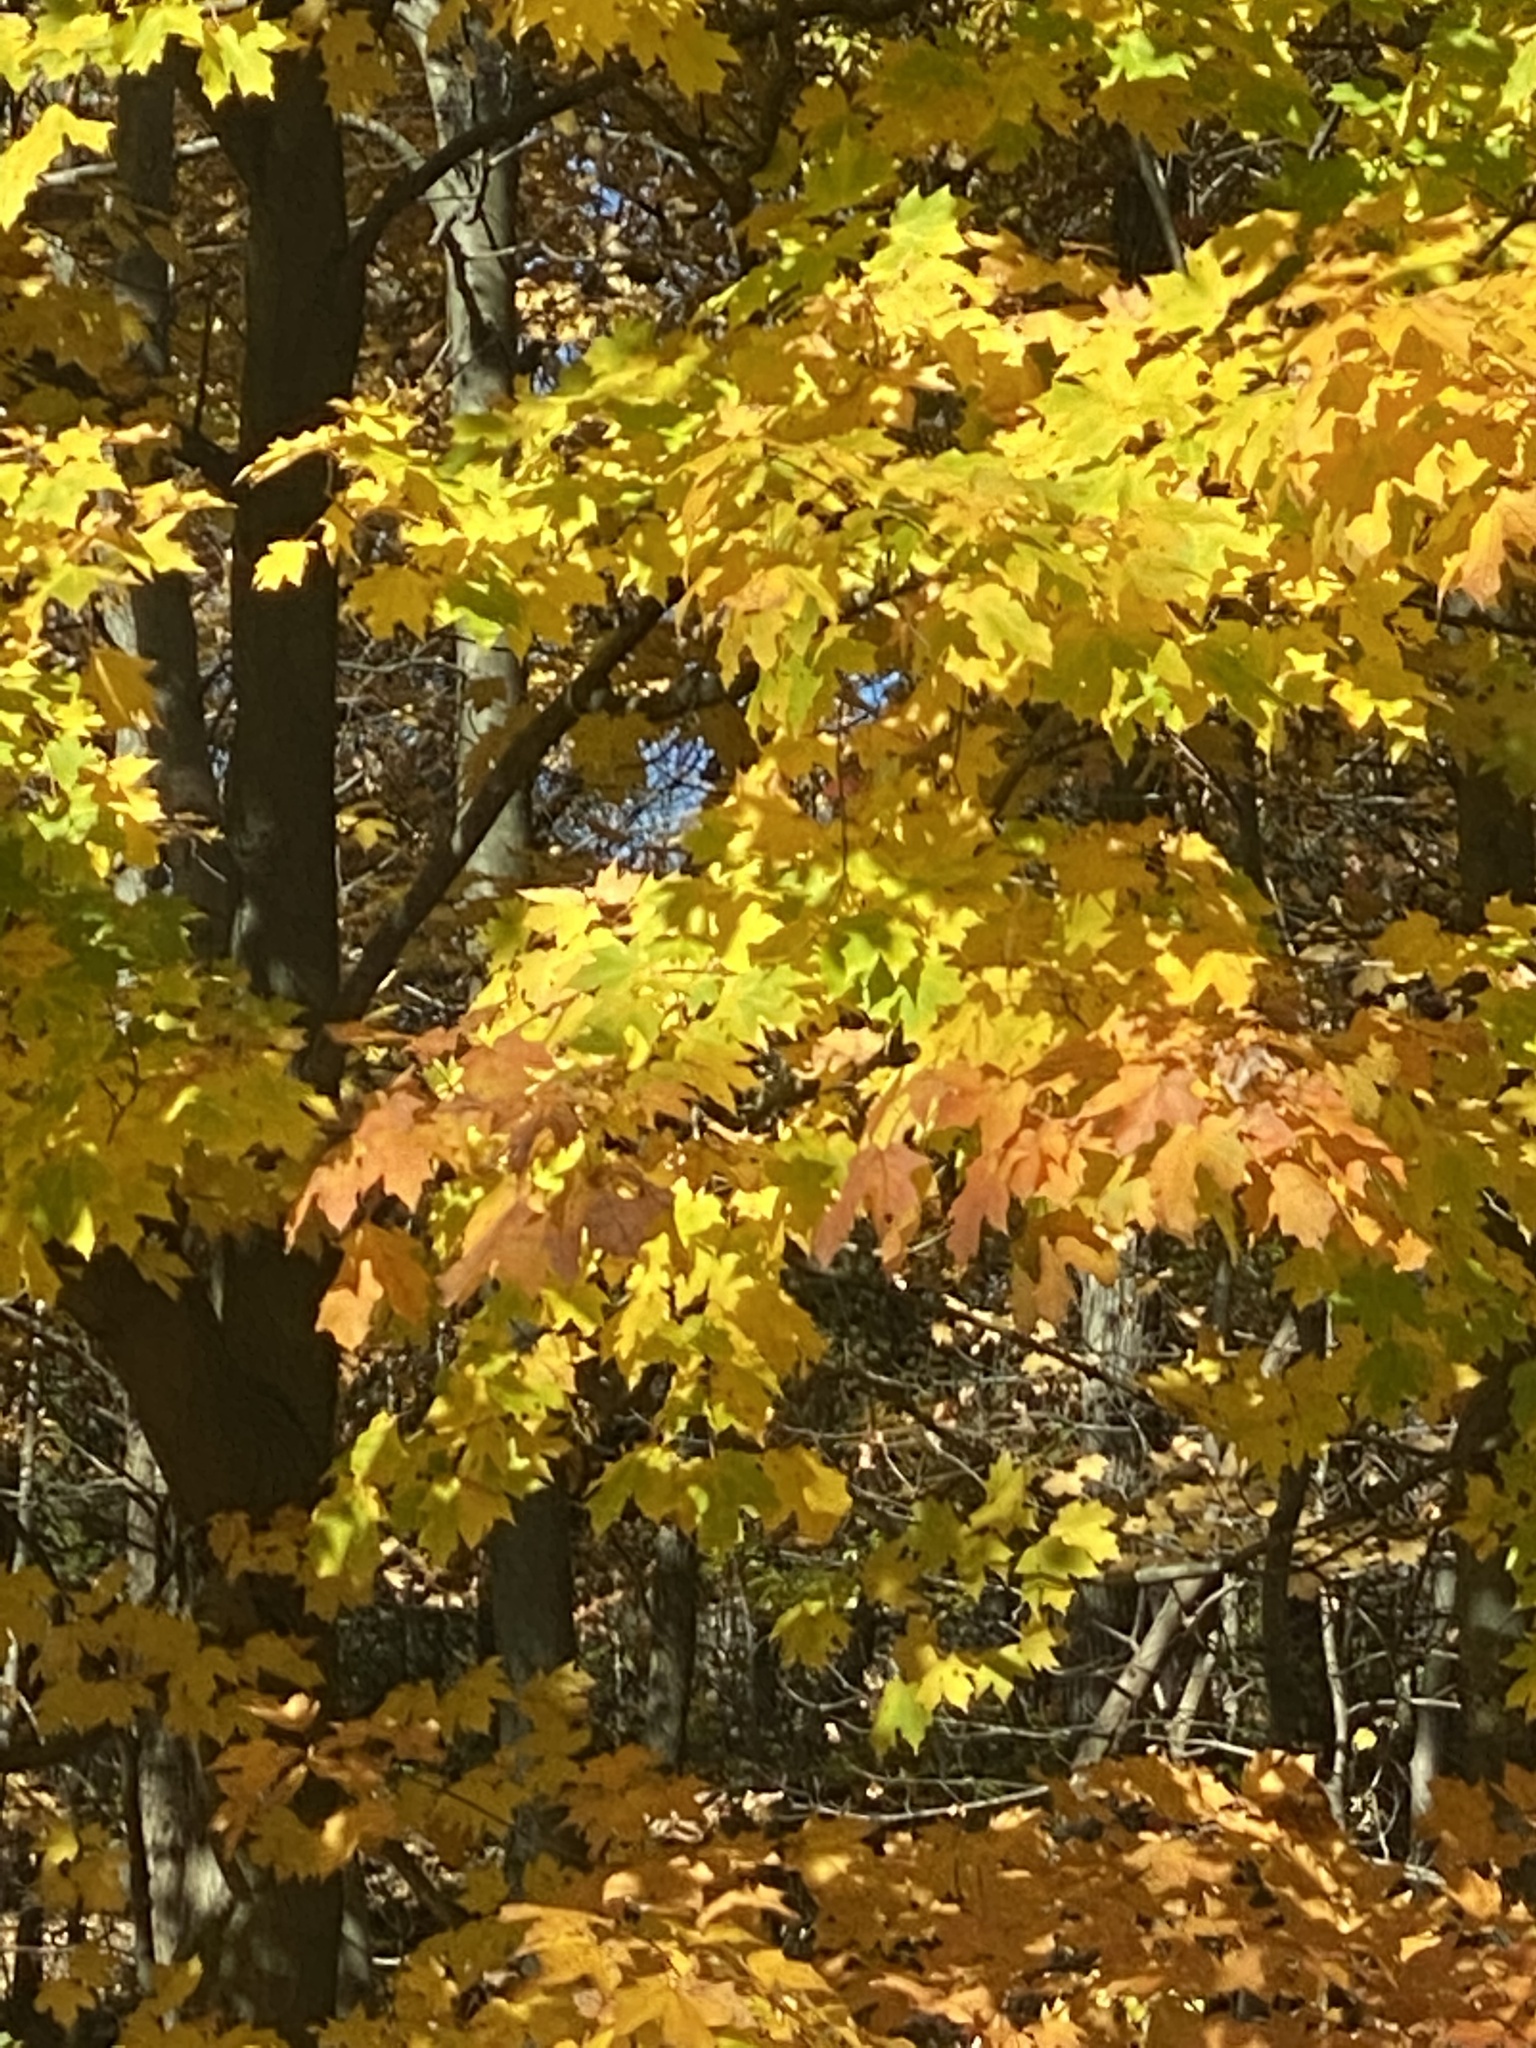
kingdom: Plantae
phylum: Tracheophyta
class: Magnoliopsida
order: Sapindales
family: Sapindaceae
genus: Acer
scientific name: Acer saccharum
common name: Sugar maple
